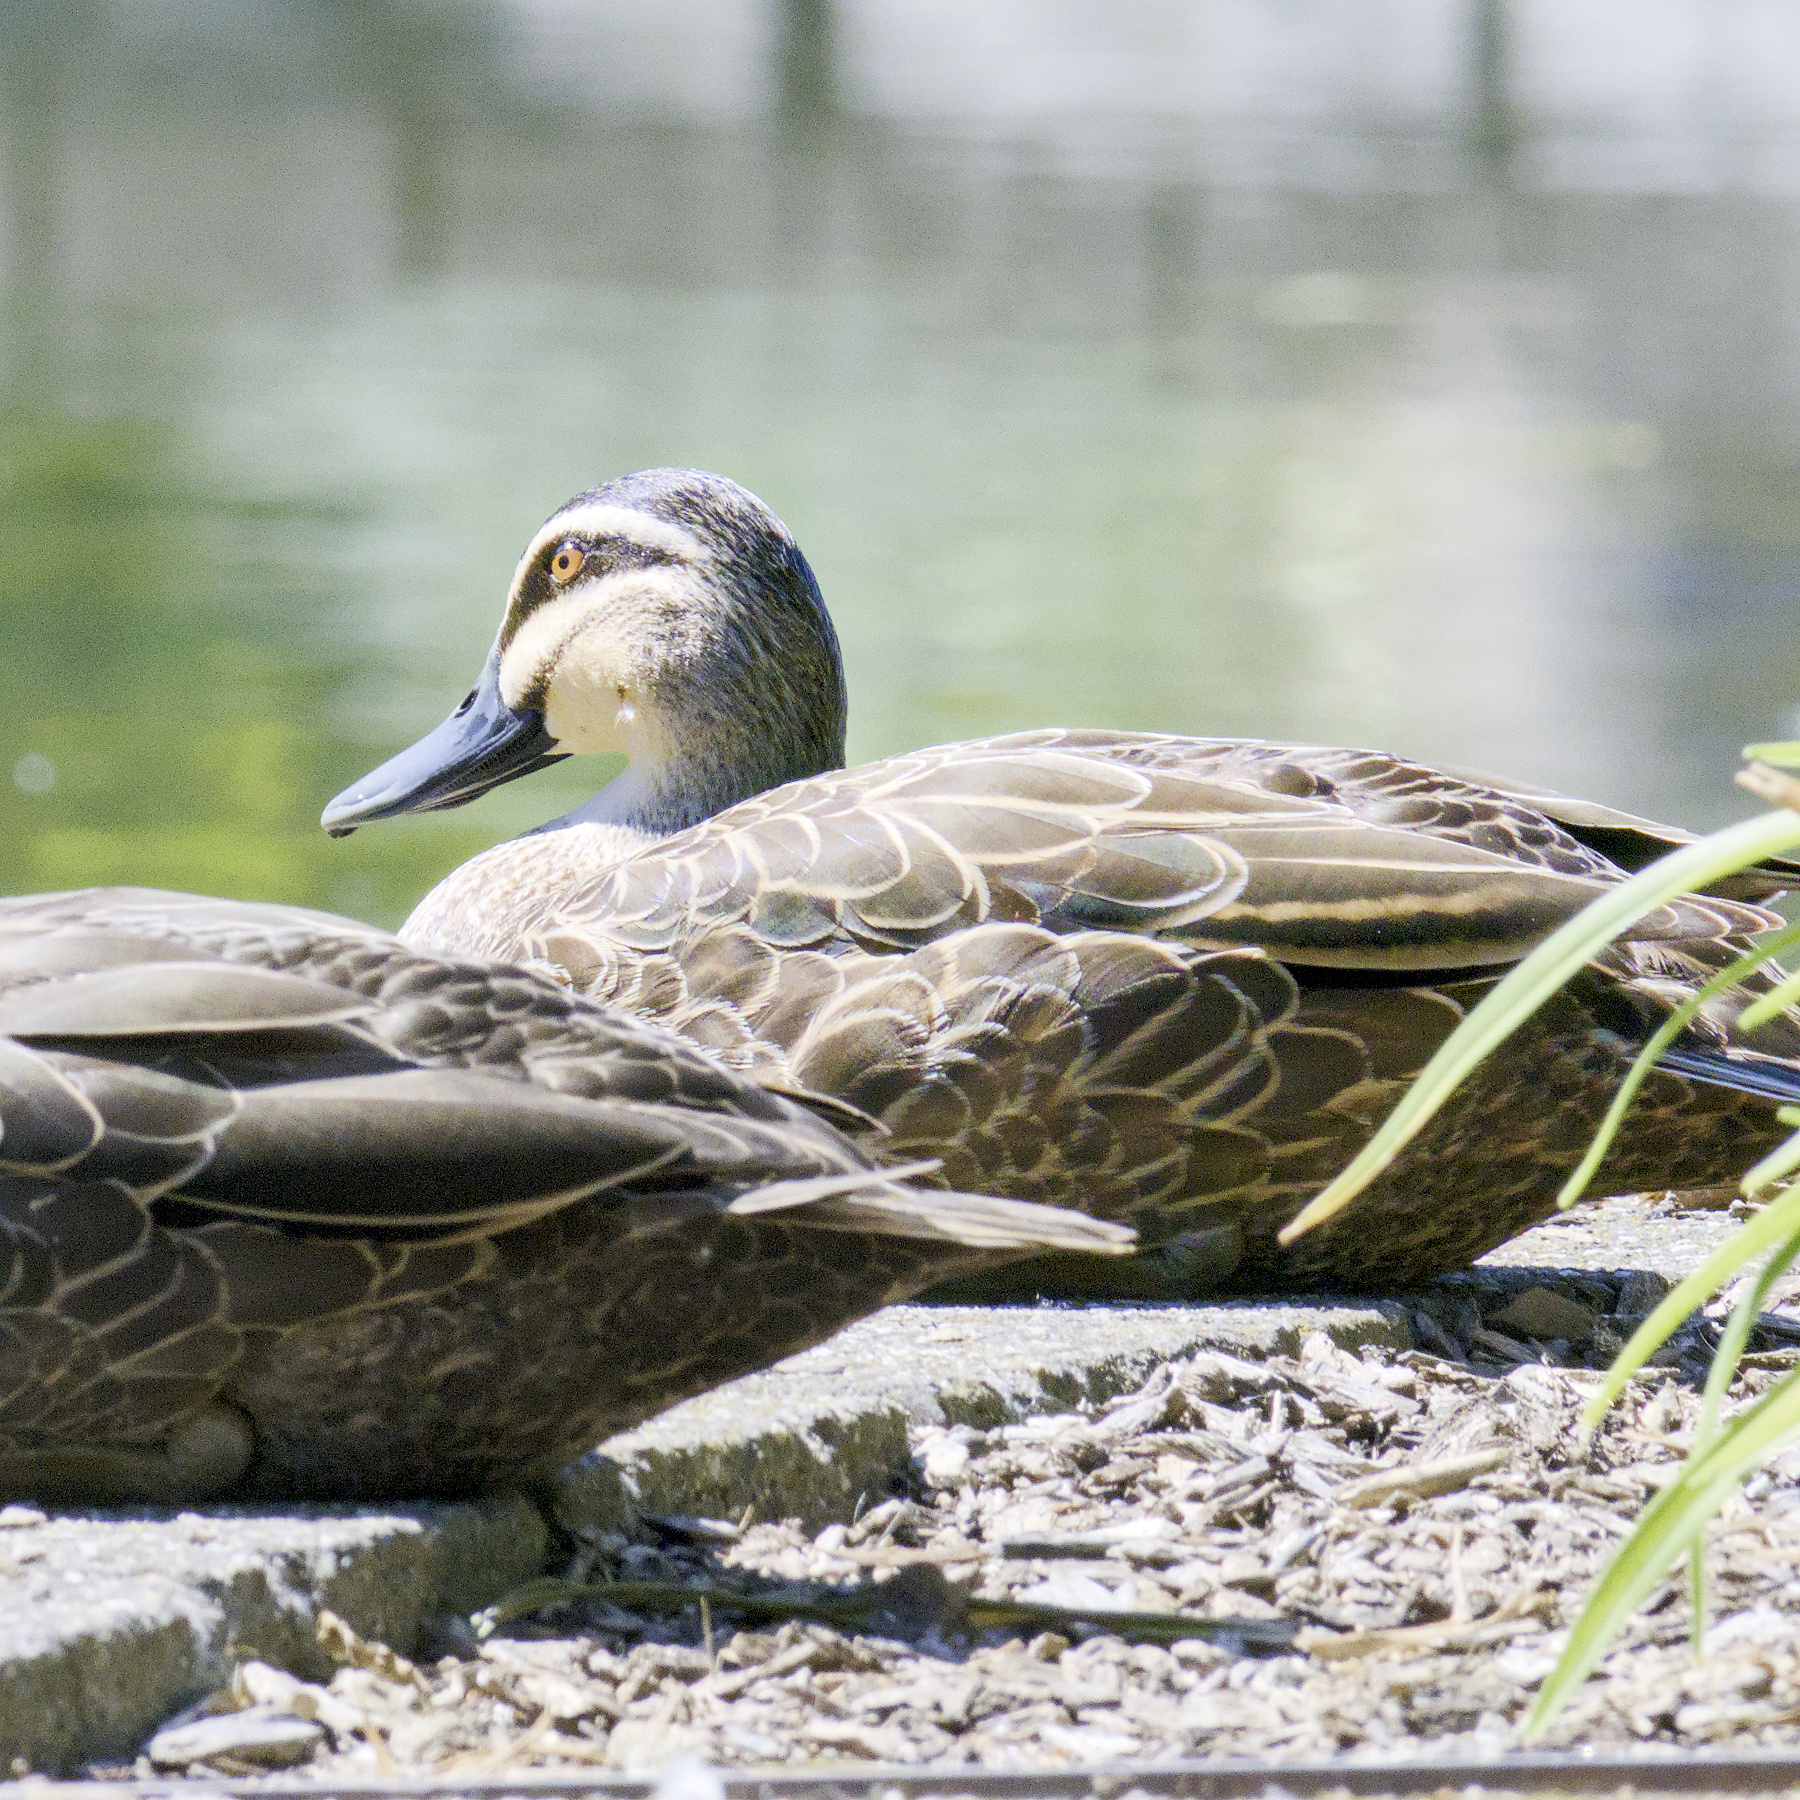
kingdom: Animalia
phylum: Chordata
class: Aves
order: Anseriformes
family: Anatidae
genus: Anas
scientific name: Anas superciliosa
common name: Pacific black duck
